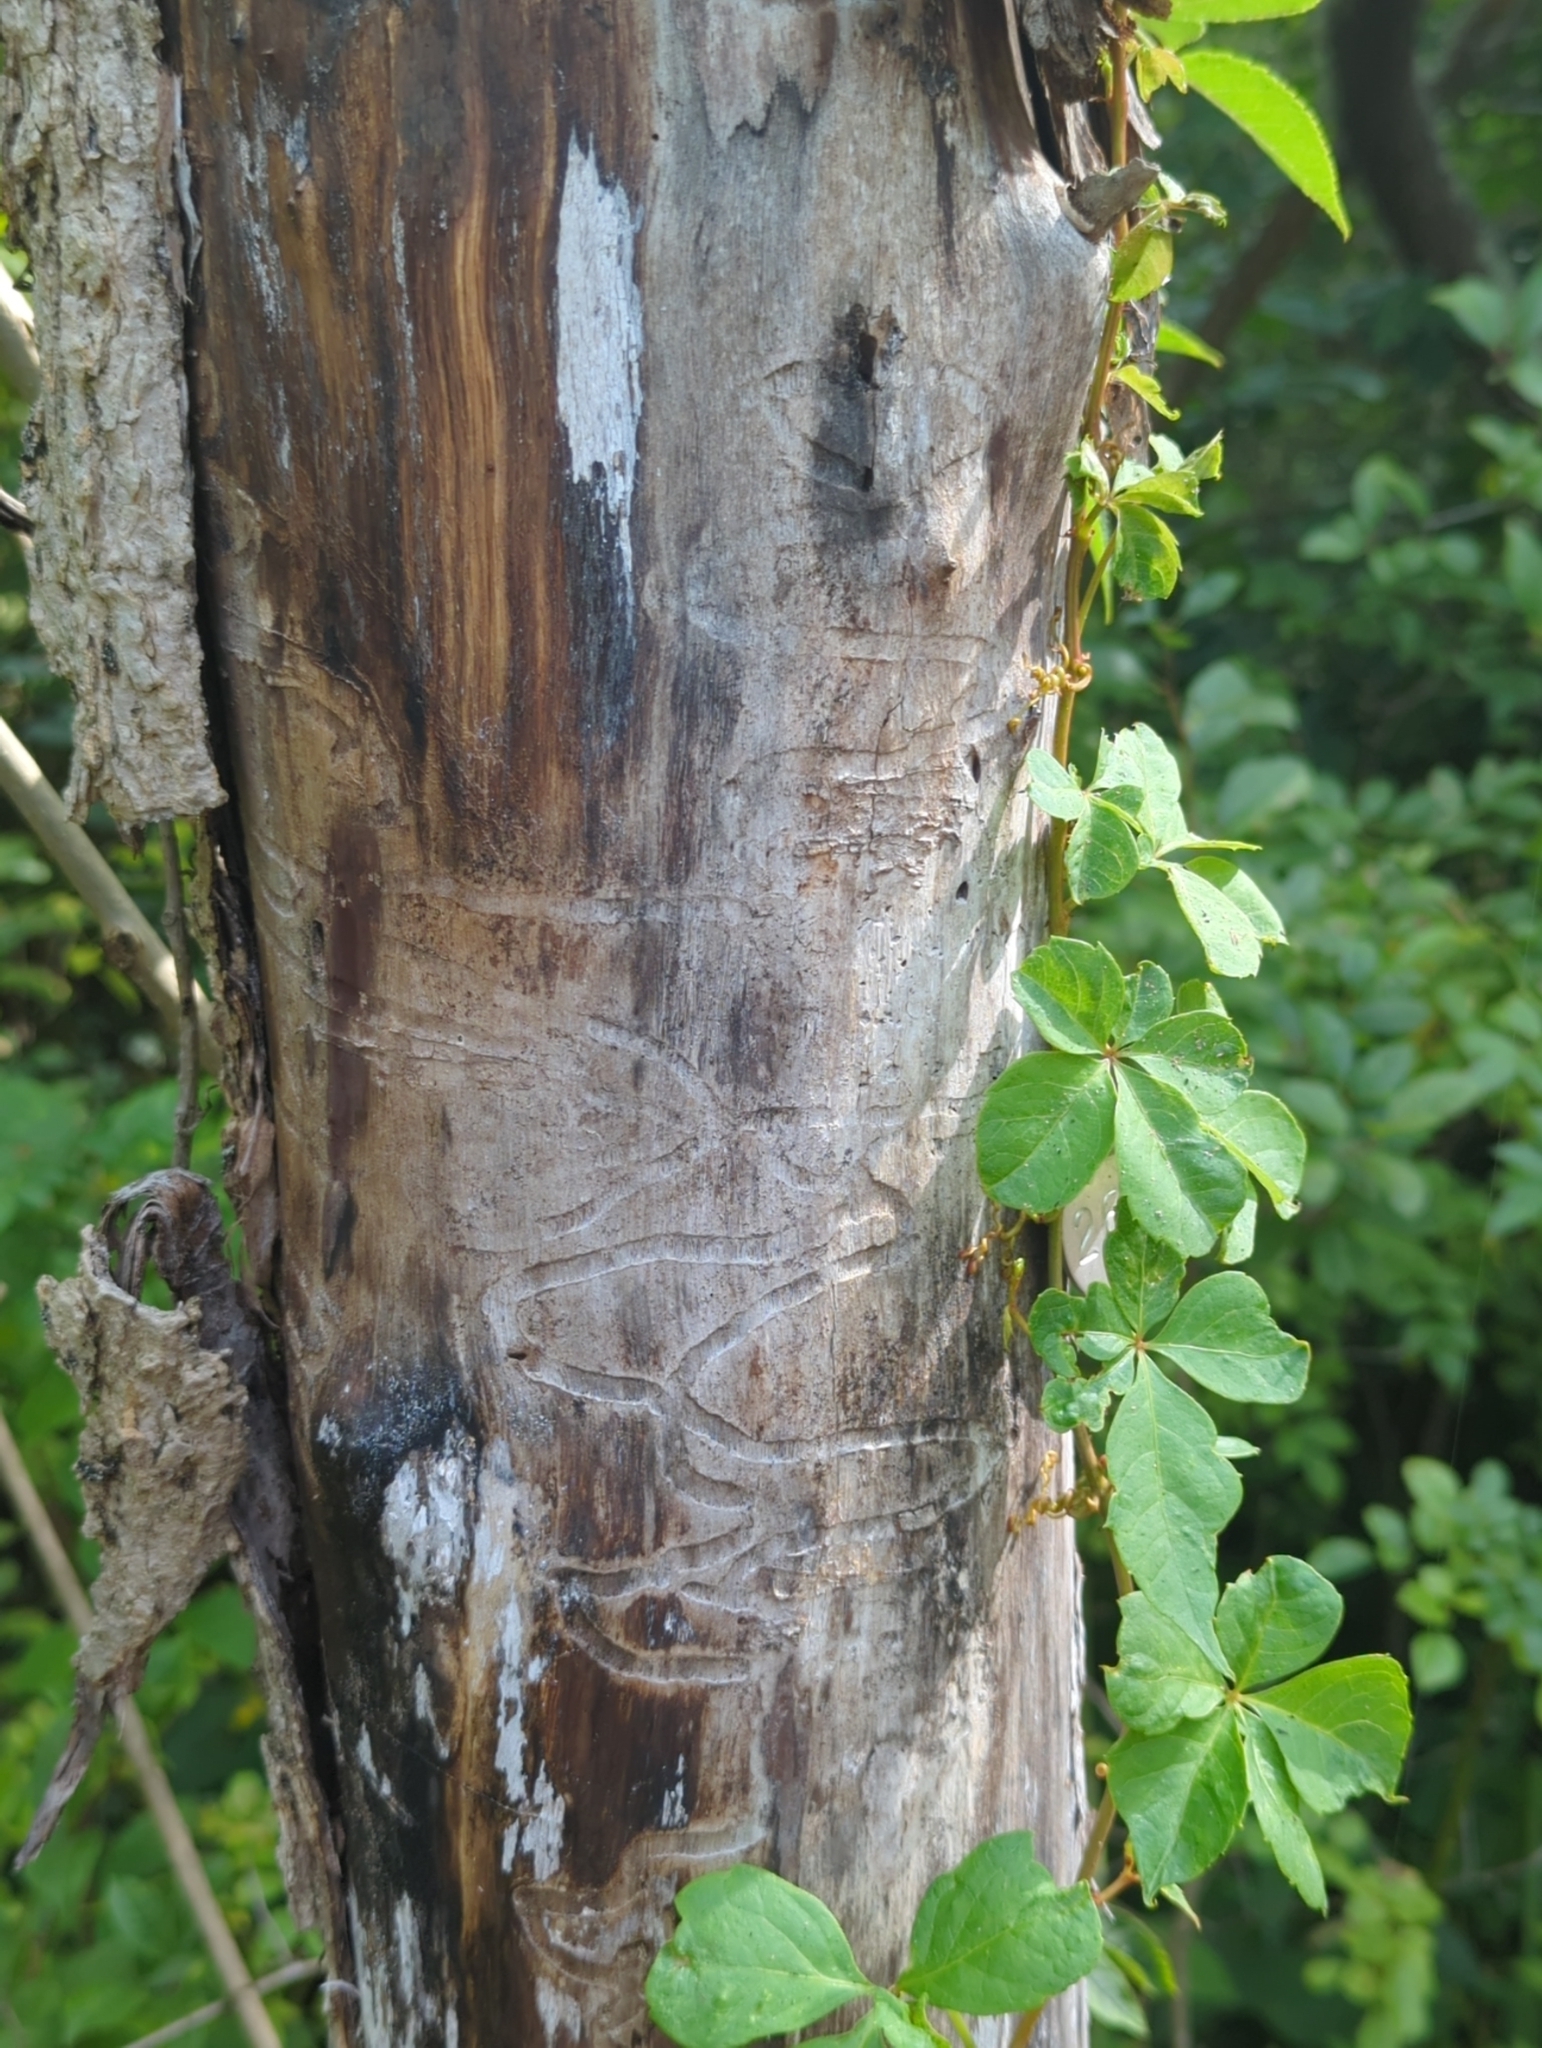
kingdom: Animalia
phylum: Arthropoda
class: Insecta
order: Coleoptera
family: Buprestidae
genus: Agrilus
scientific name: Agrilus planipennis
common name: Emerald ash borer
